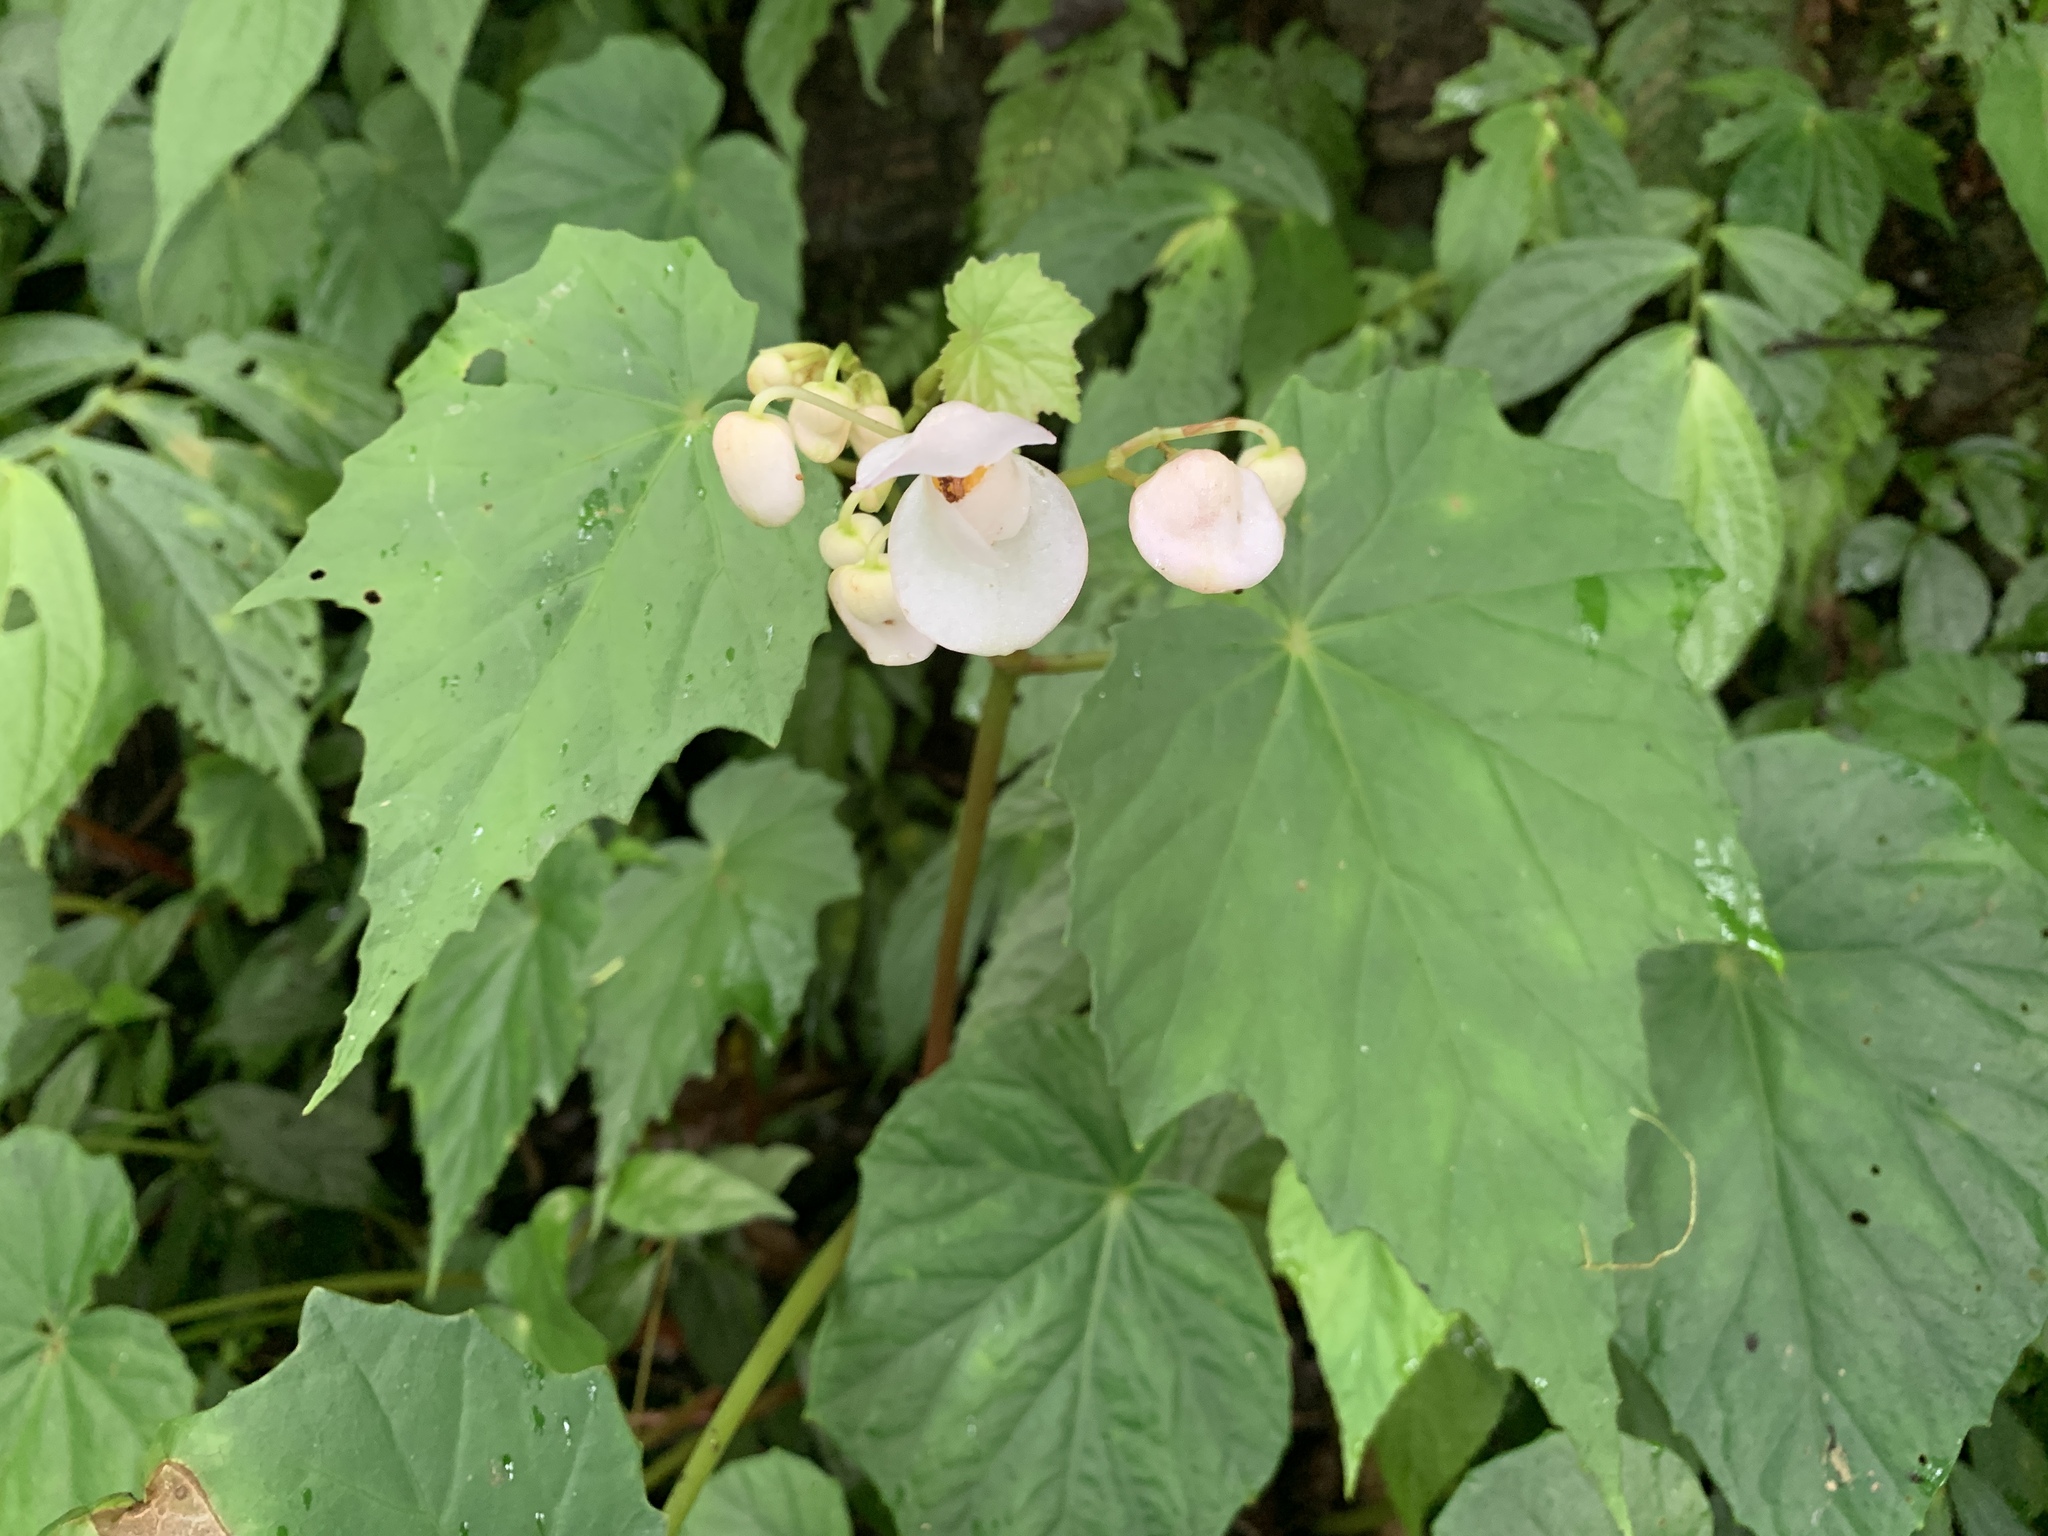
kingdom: Plantae
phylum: Tracheophyta
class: Magnoliopsida
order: Cucurbitales
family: Begoniaceae
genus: Begonia
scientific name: Begonia formosana
